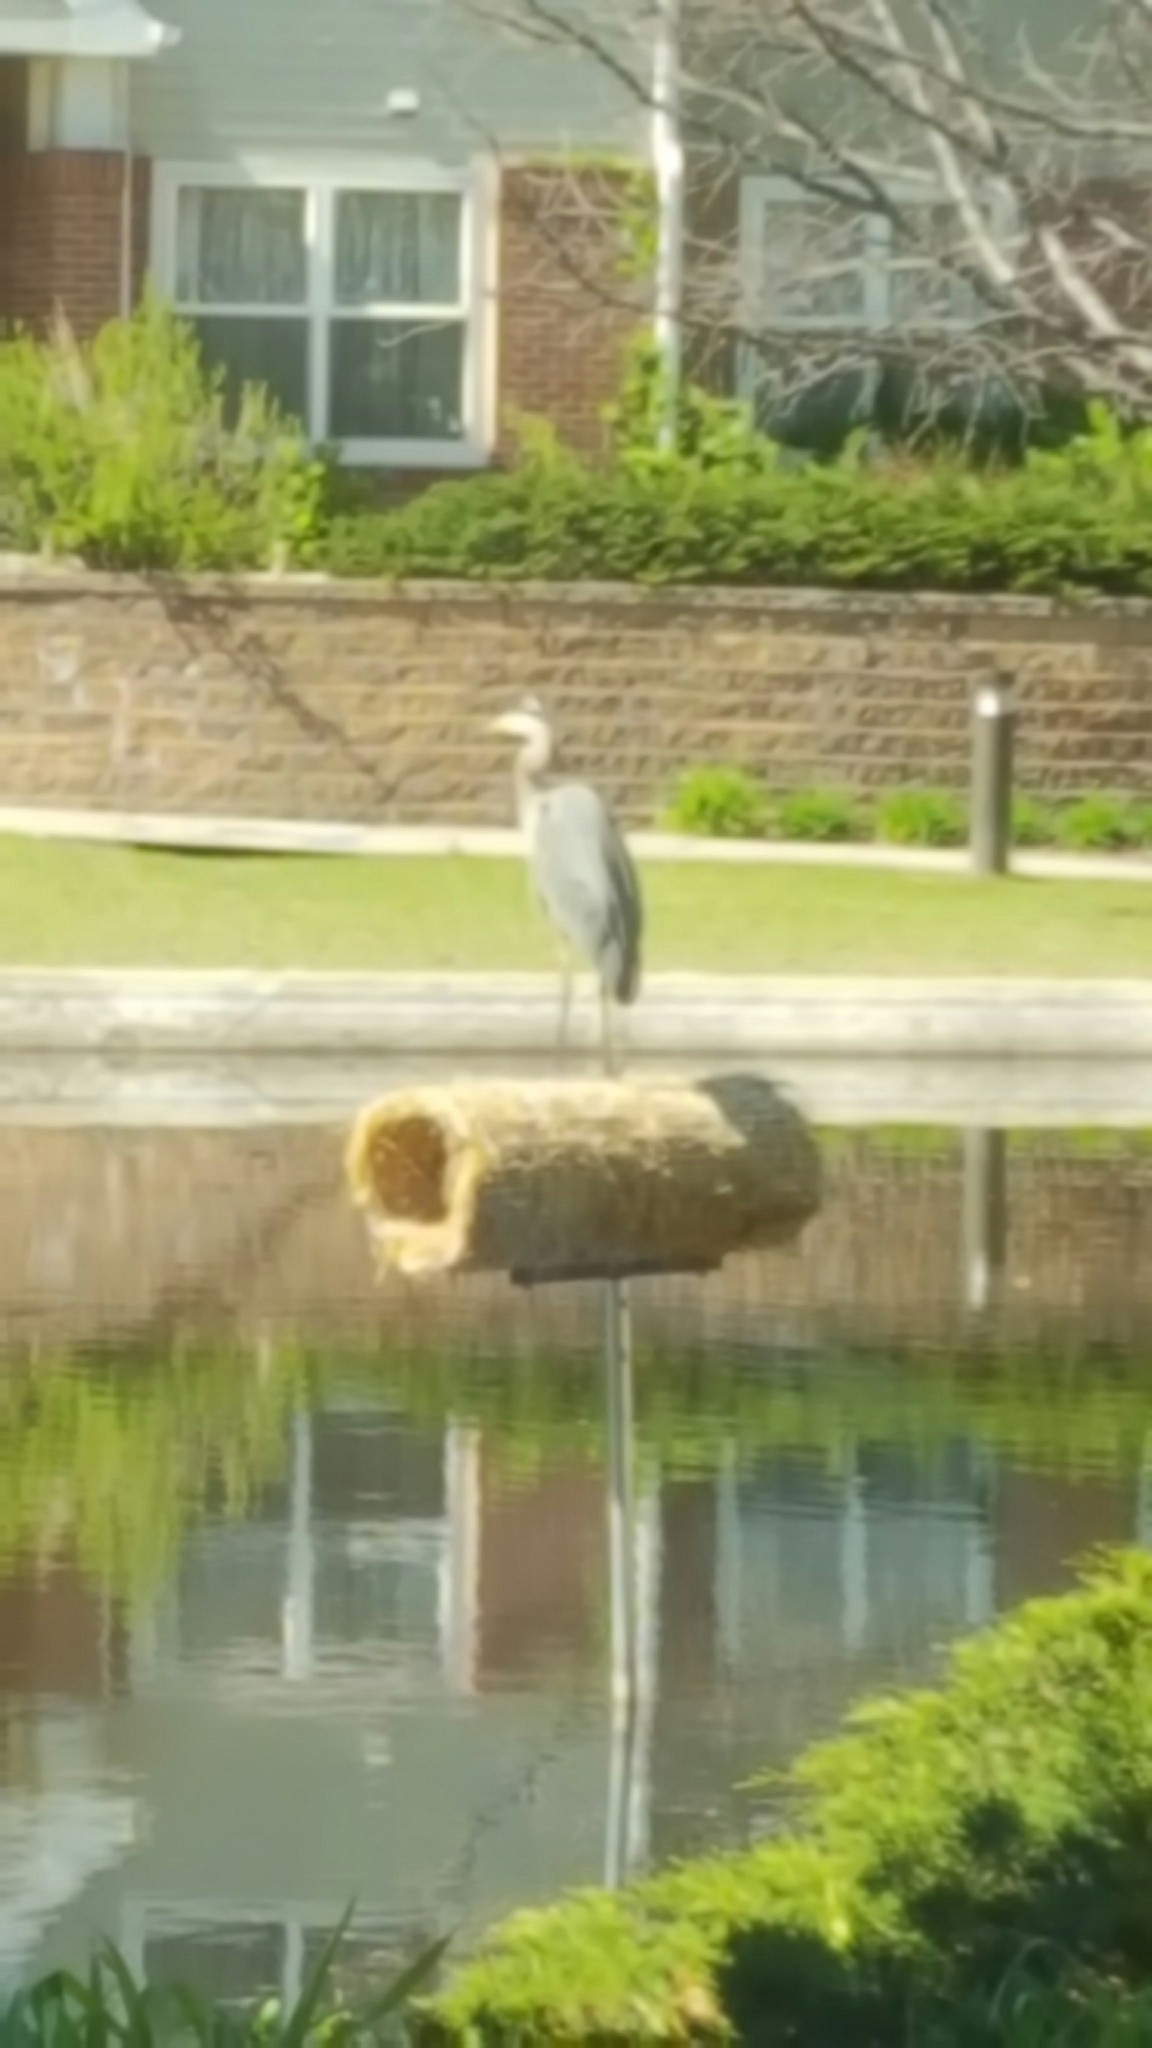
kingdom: Animalia
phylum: Chordata
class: Aves
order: Pelecaniformes
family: Ardeidae
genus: Ardea
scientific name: Ardea herodias
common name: Great blue heron
